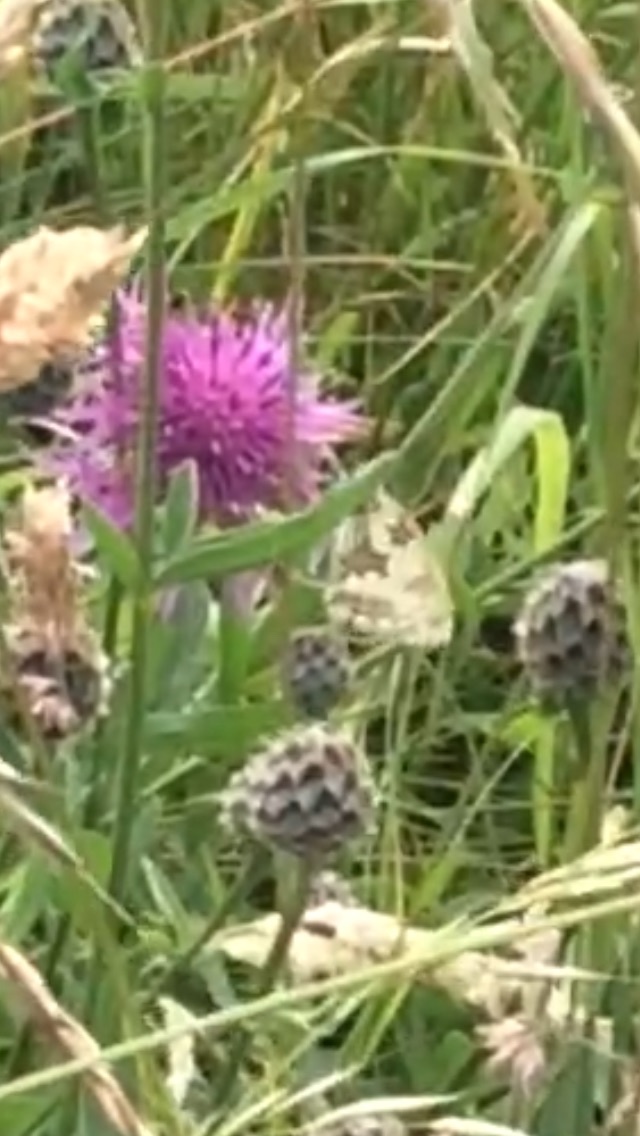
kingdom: Animalia
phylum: Arthropoda
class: Insecta
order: Lepidoptera
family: Nymphalidae
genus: Melanargia
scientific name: Melanargia galathea
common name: Marbled white
